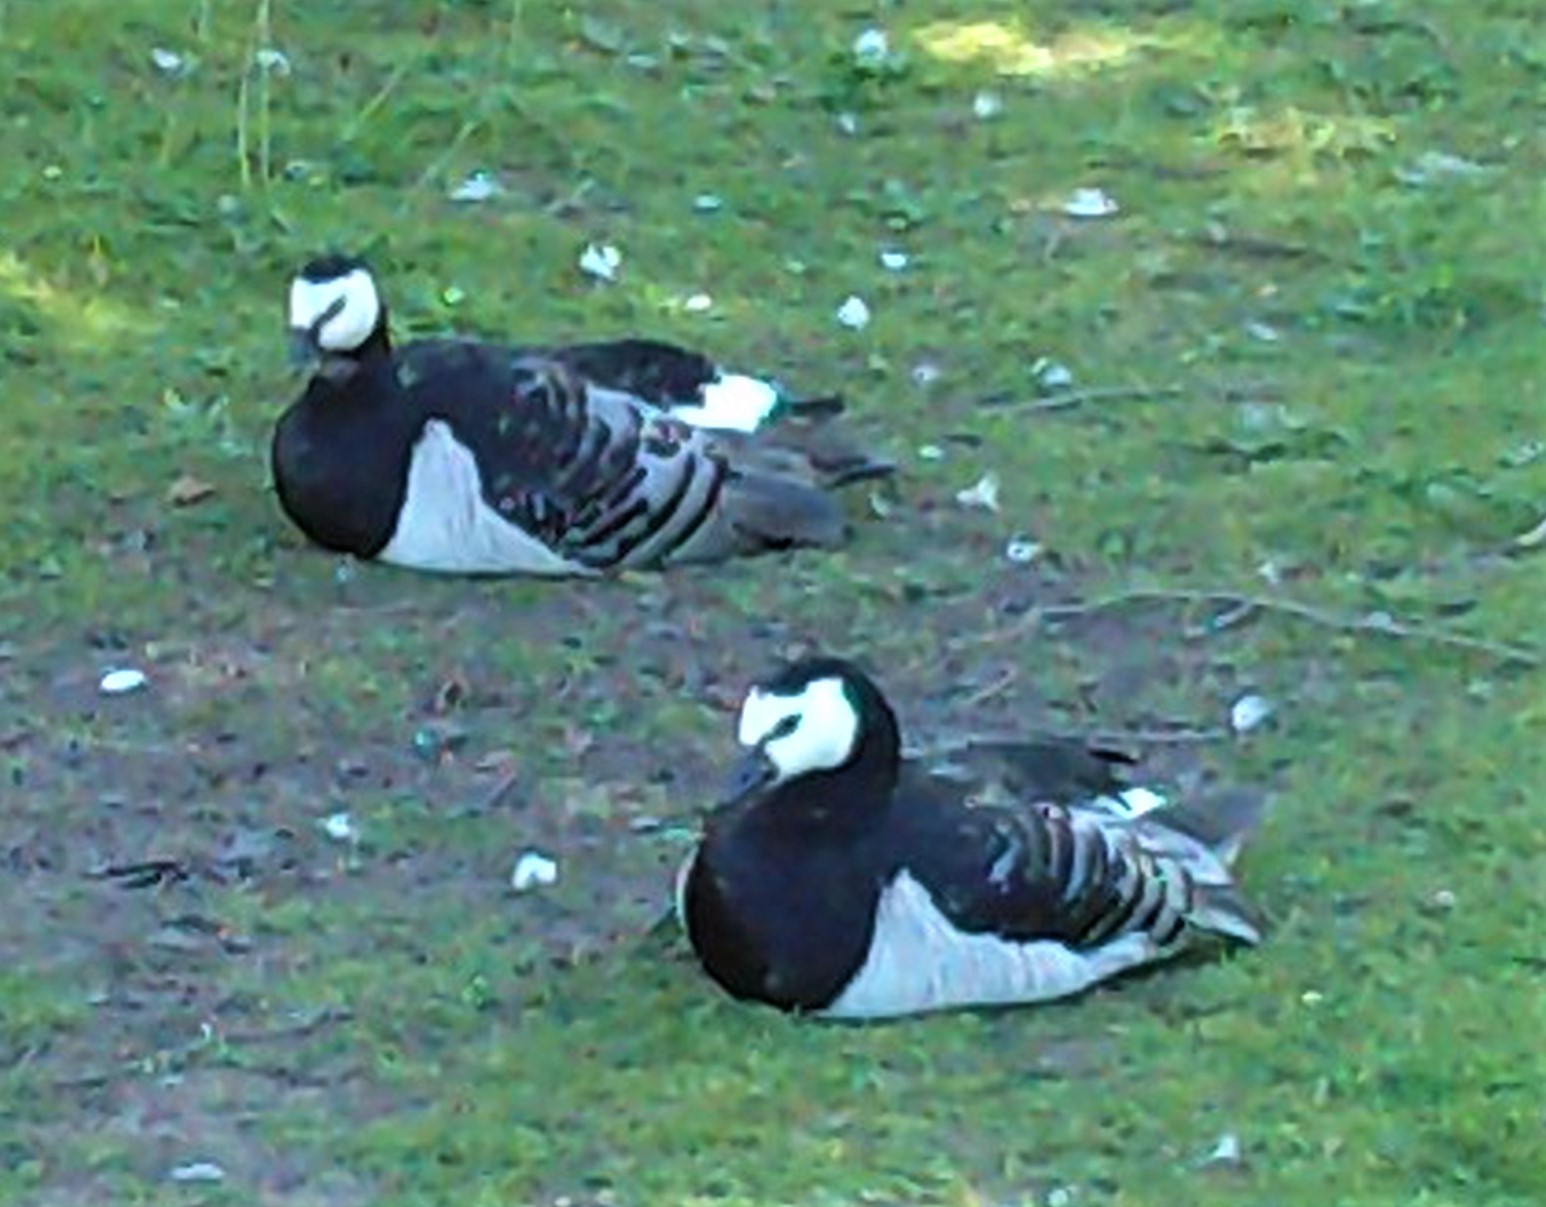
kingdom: Animalia
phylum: Chordata
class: Aves
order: Anseriformes
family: Anatidae
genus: Branta
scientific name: Branta leucopsis
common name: Barnacle goose
